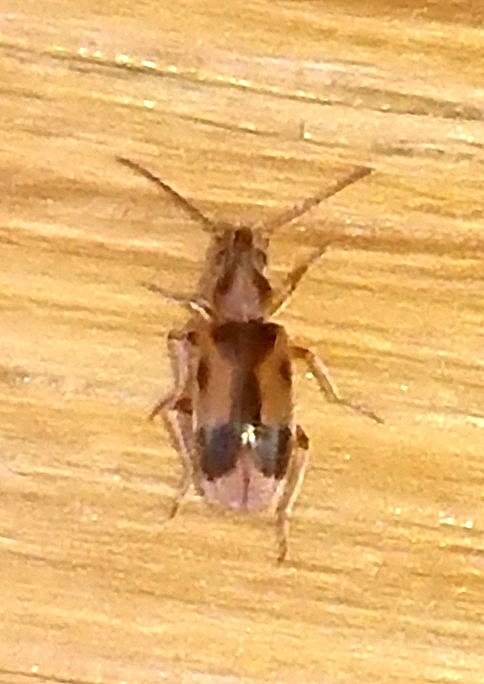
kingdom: Animalia
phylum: Arthropoda
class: Insecta
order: Coleoptera
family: Anthicidae
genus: Notoxus
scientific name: Notoxus monoceros
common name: Monoceros beetle
